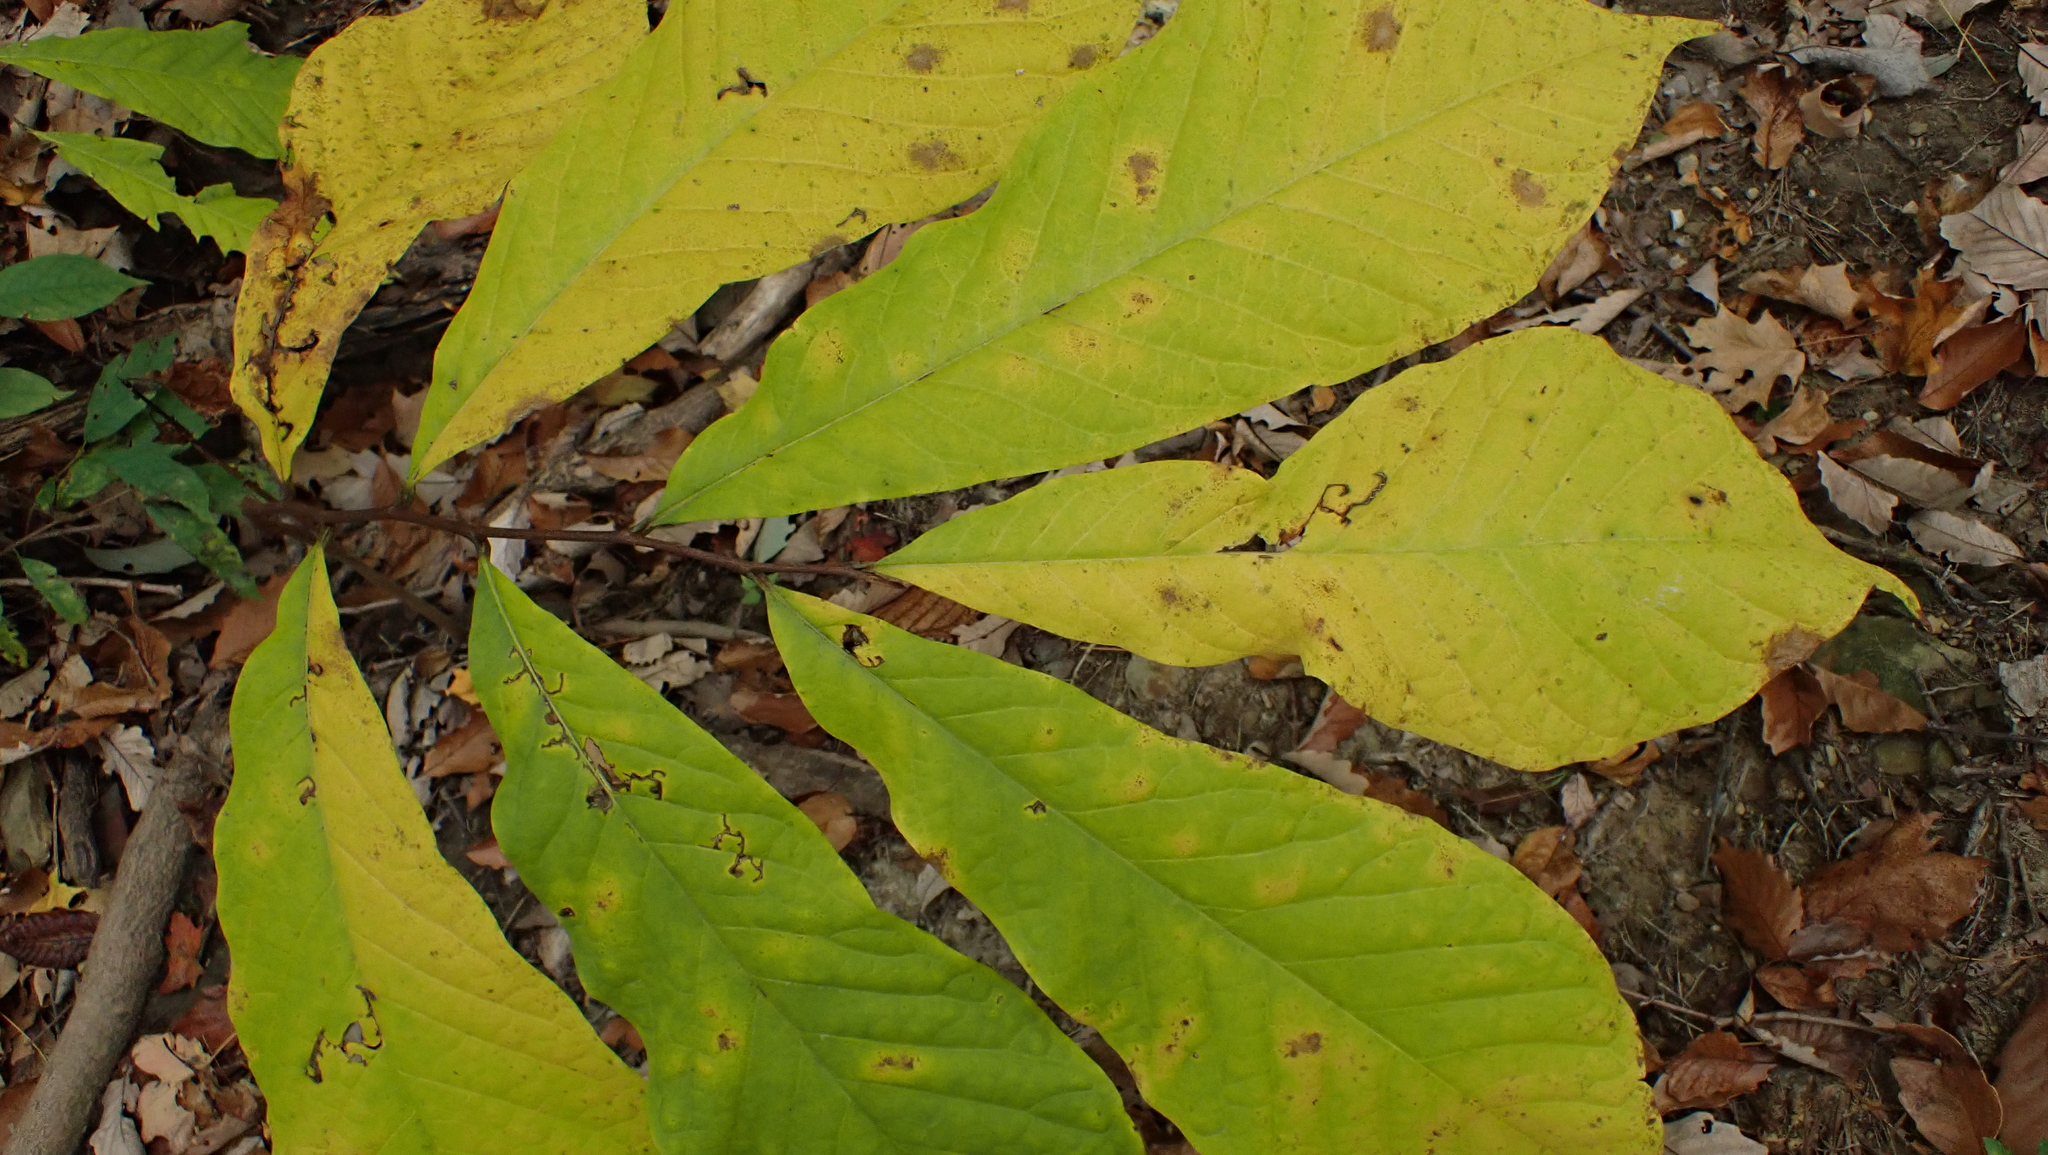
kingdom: Plantae
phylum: Tracheophyta
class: Magnoliopsida
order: Magnoliales
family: Annonaceae
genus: Asimina
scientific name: Asimina triloba
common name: Dog-banana
